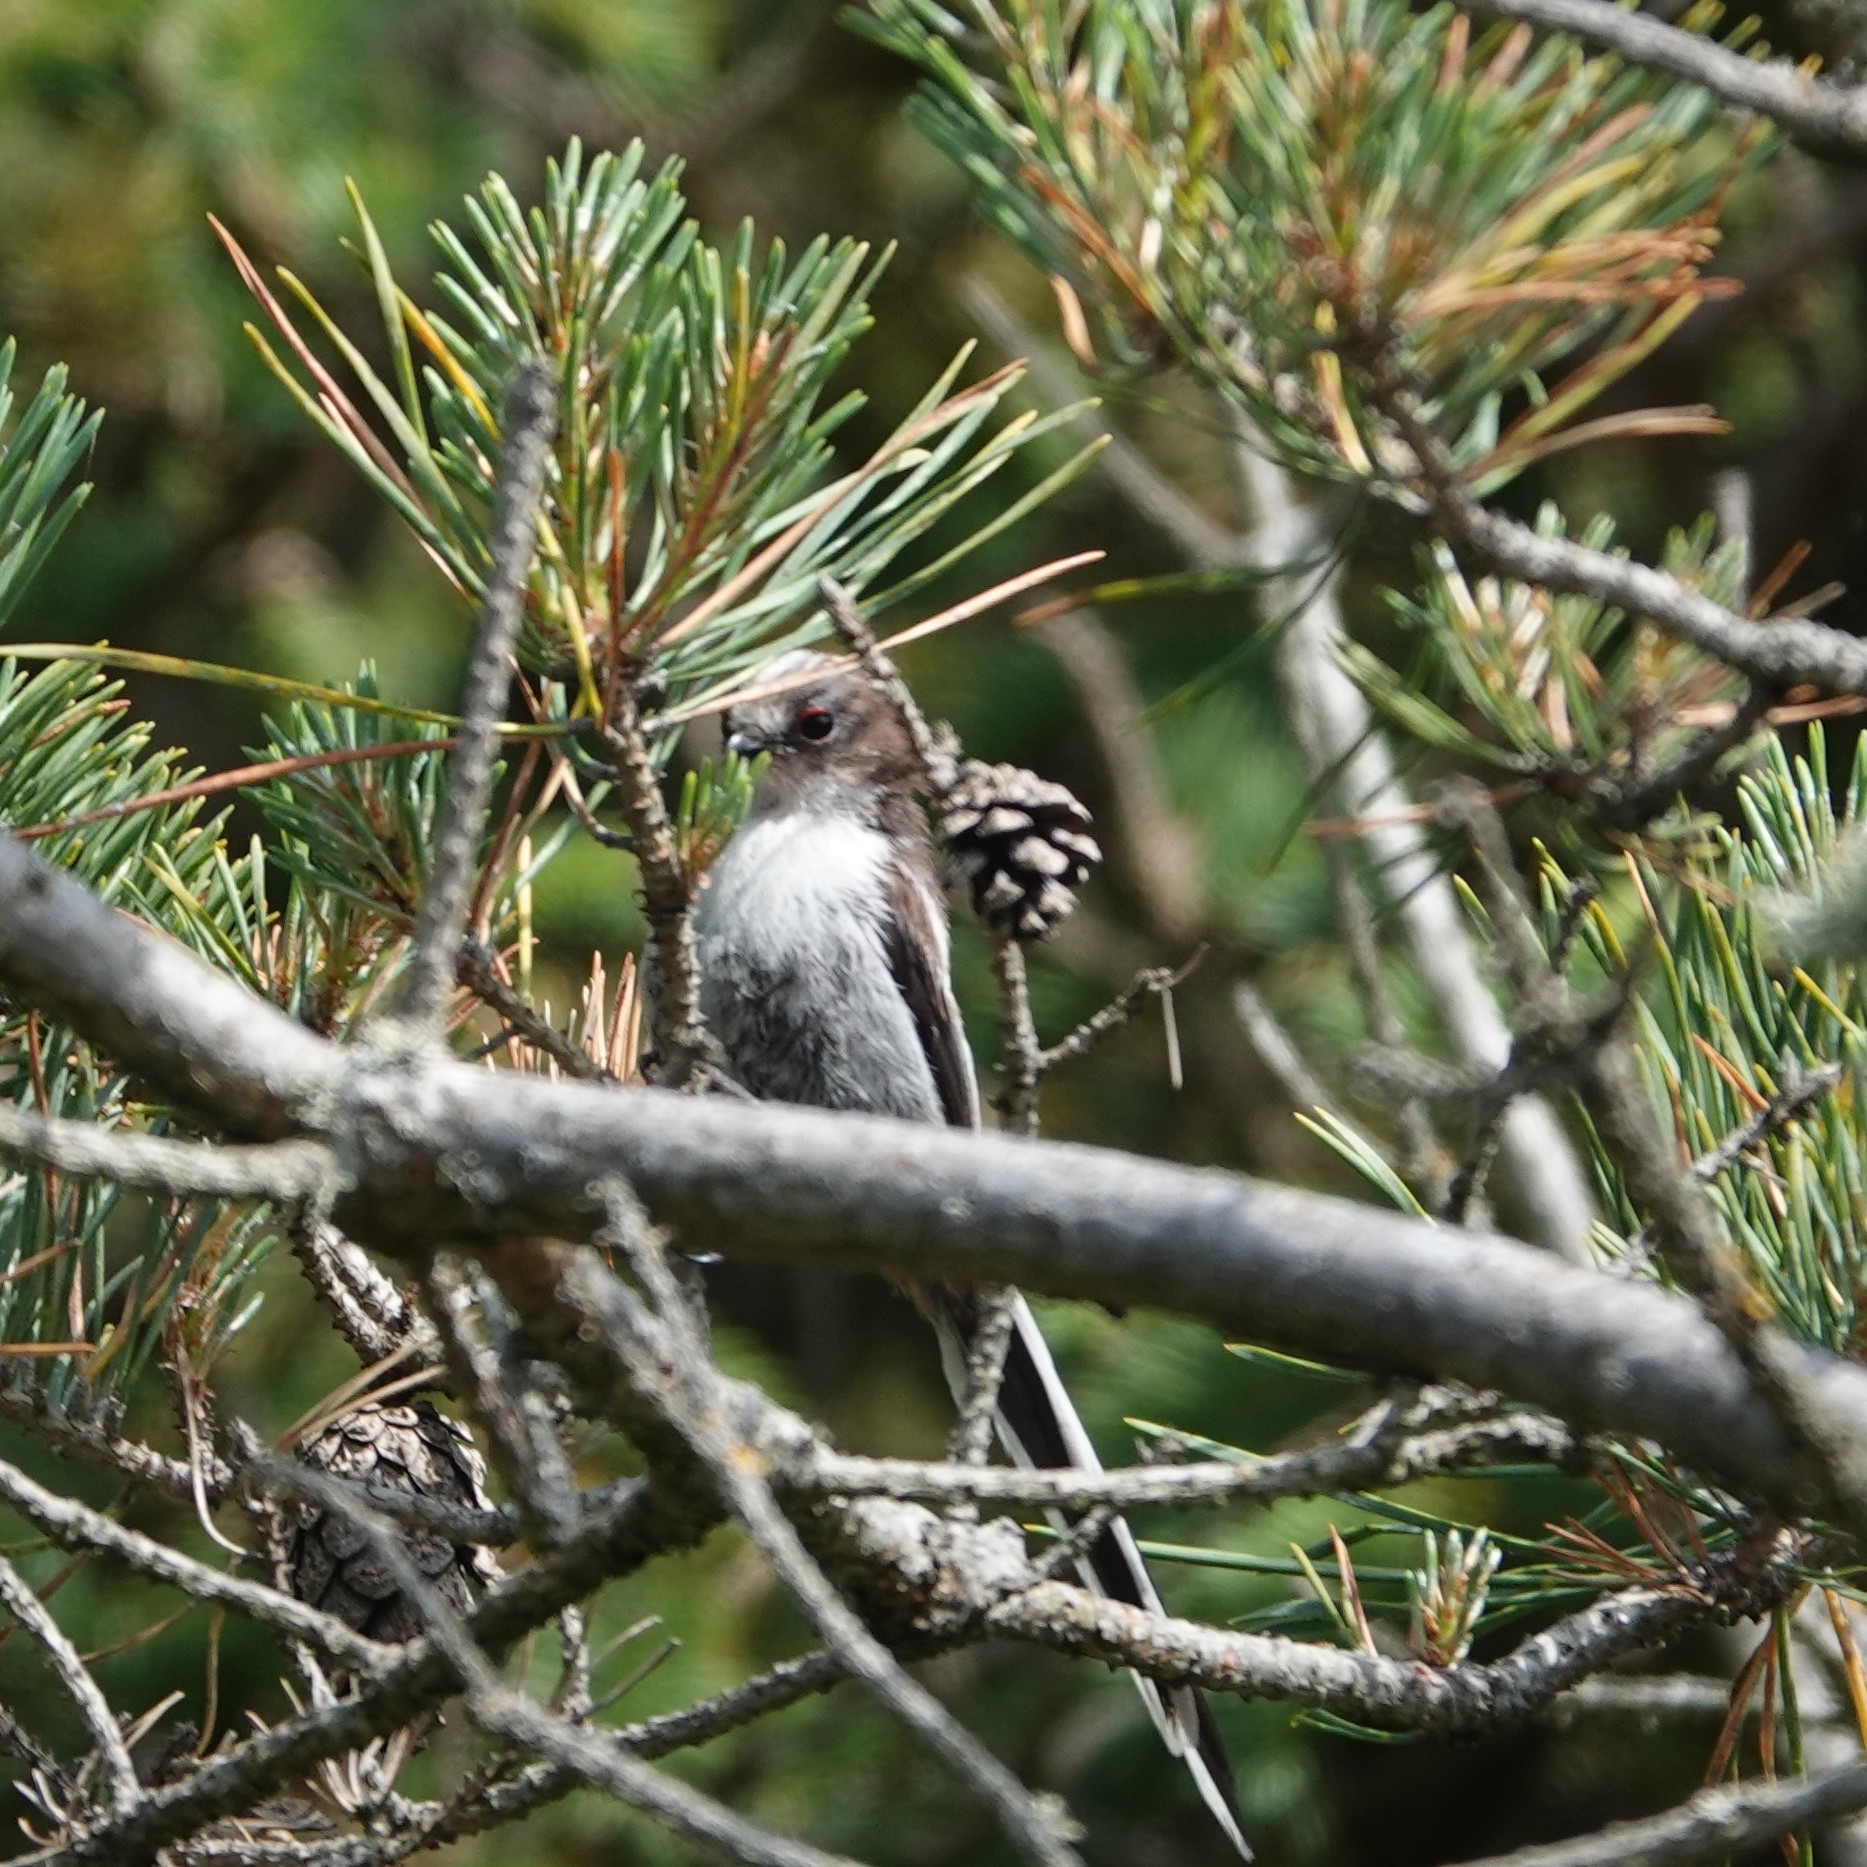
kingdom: Animalia
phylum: Chordata
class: Aves
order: Passeriformes
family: Aegithalidae
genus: Aegithalos
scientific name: Aegithalos caudatus
